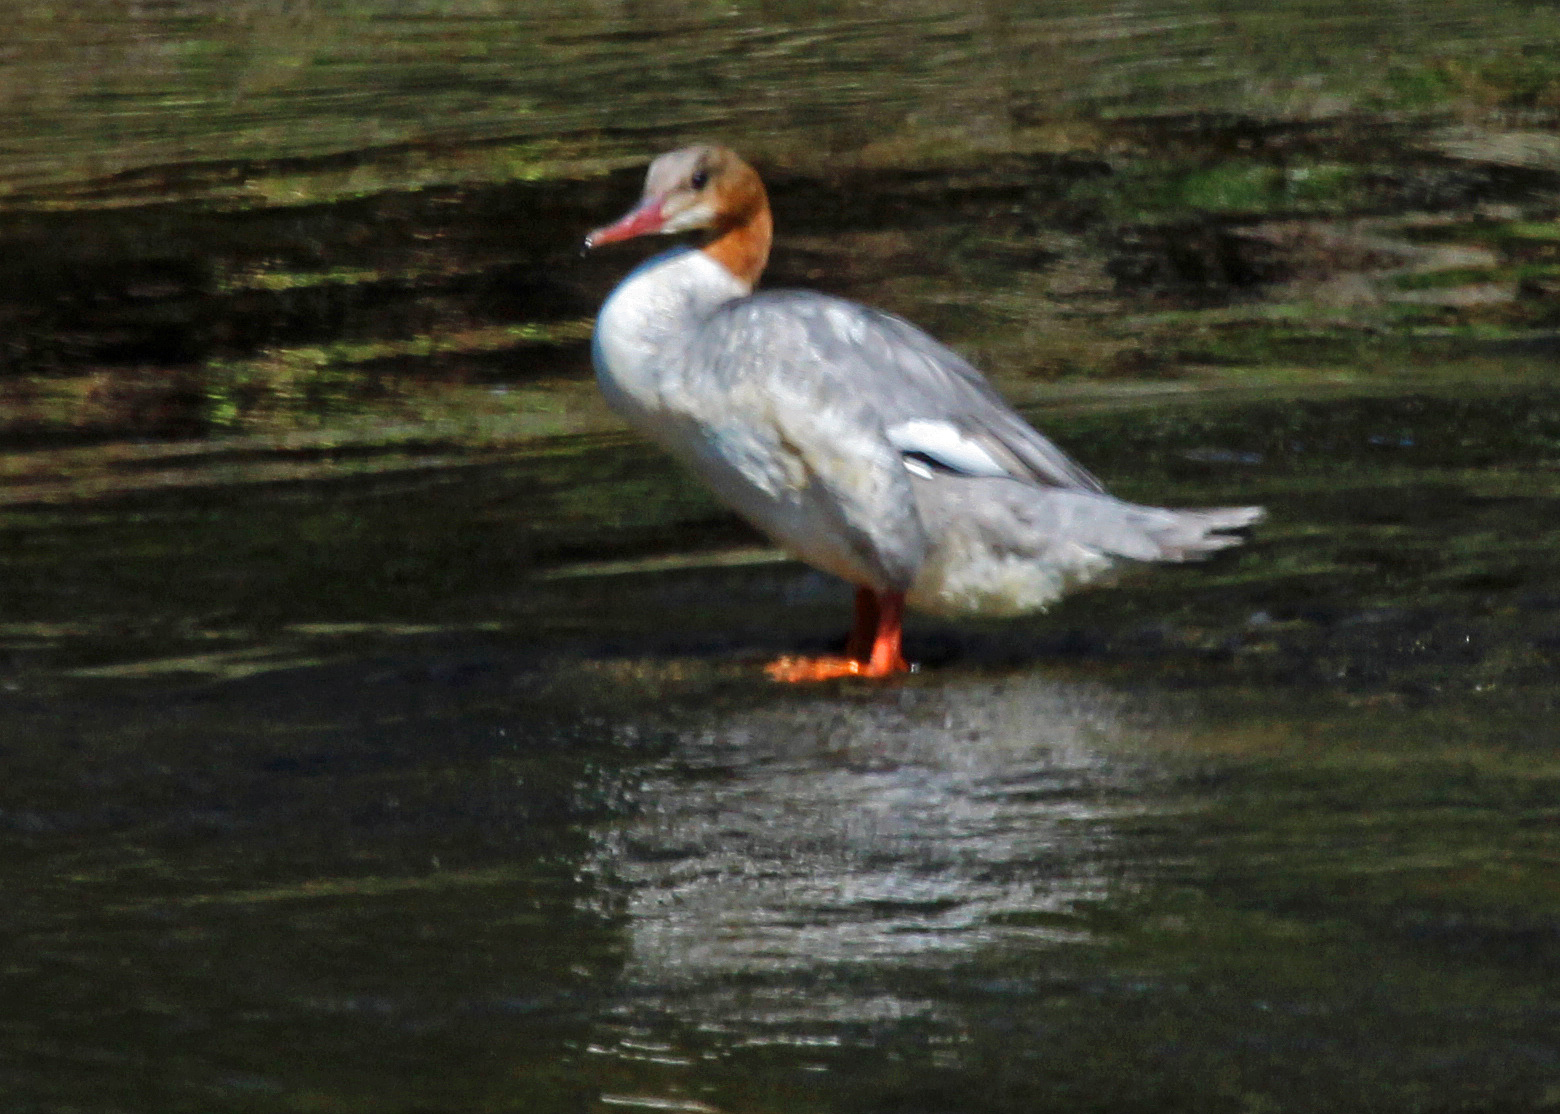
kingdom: Animalia
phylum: Chordata
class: Aves
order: Anseriformes
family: Anatidae
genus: Mergus
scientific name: Mergus merganser
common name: Common merganser
